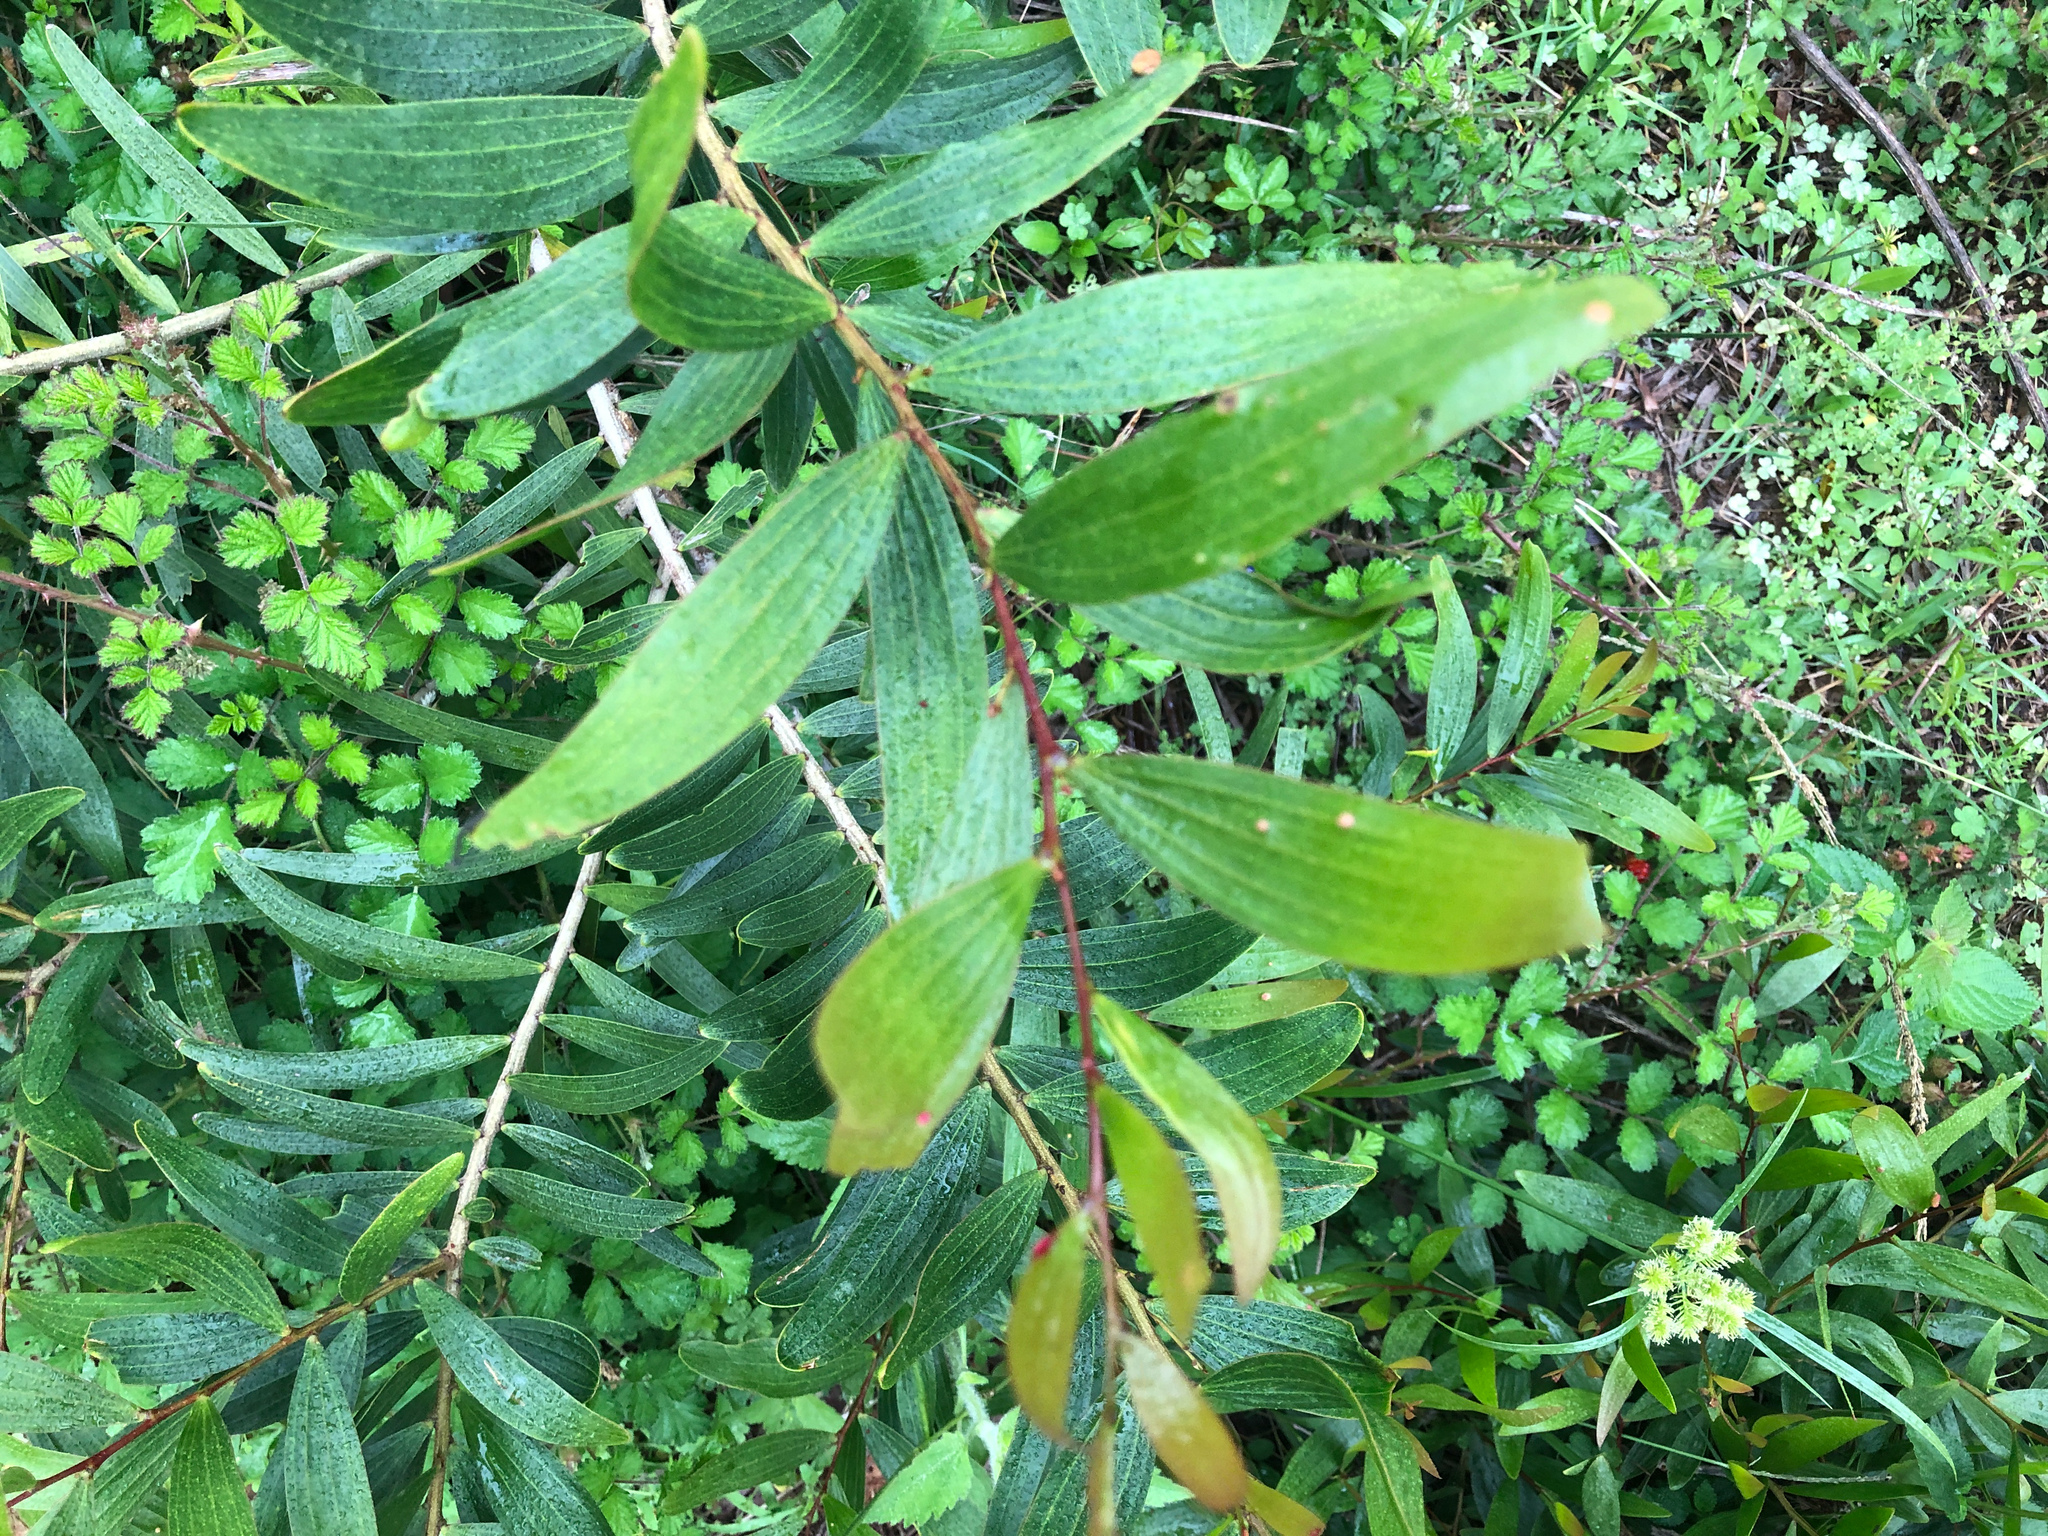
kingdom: Plantae
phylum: Tracheophyta
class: Magnoliopsida
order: Fabales
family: Fabaceae
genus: Acacia
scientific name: Acacia confusa
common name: Formosan koa
